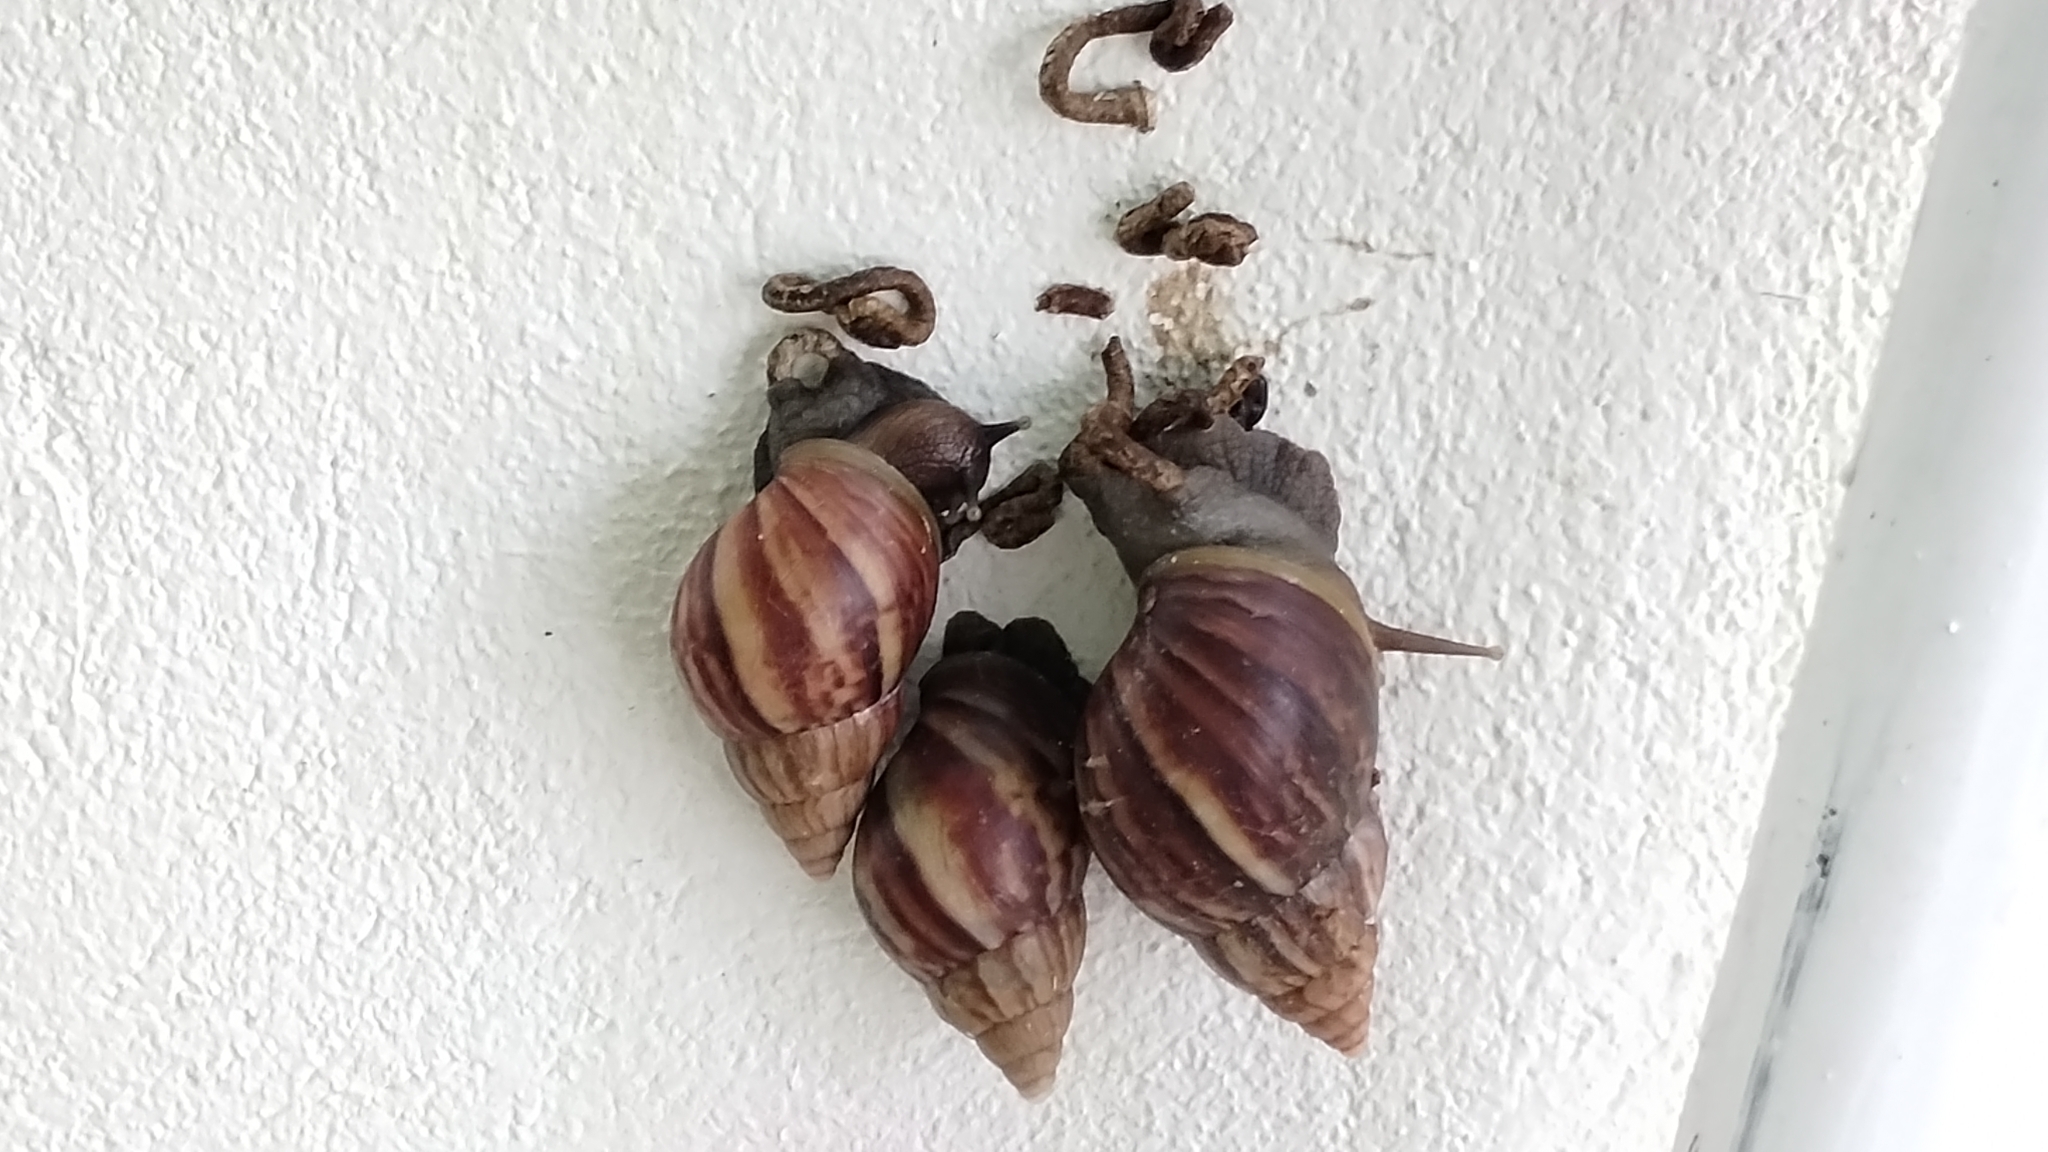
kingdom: Animalia
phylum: Mollusca
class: Gastropoda
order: Stylommatophora
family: Achatinidae
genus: Lissachatina
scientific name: Lissachatina fulica
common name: Giant african snail
